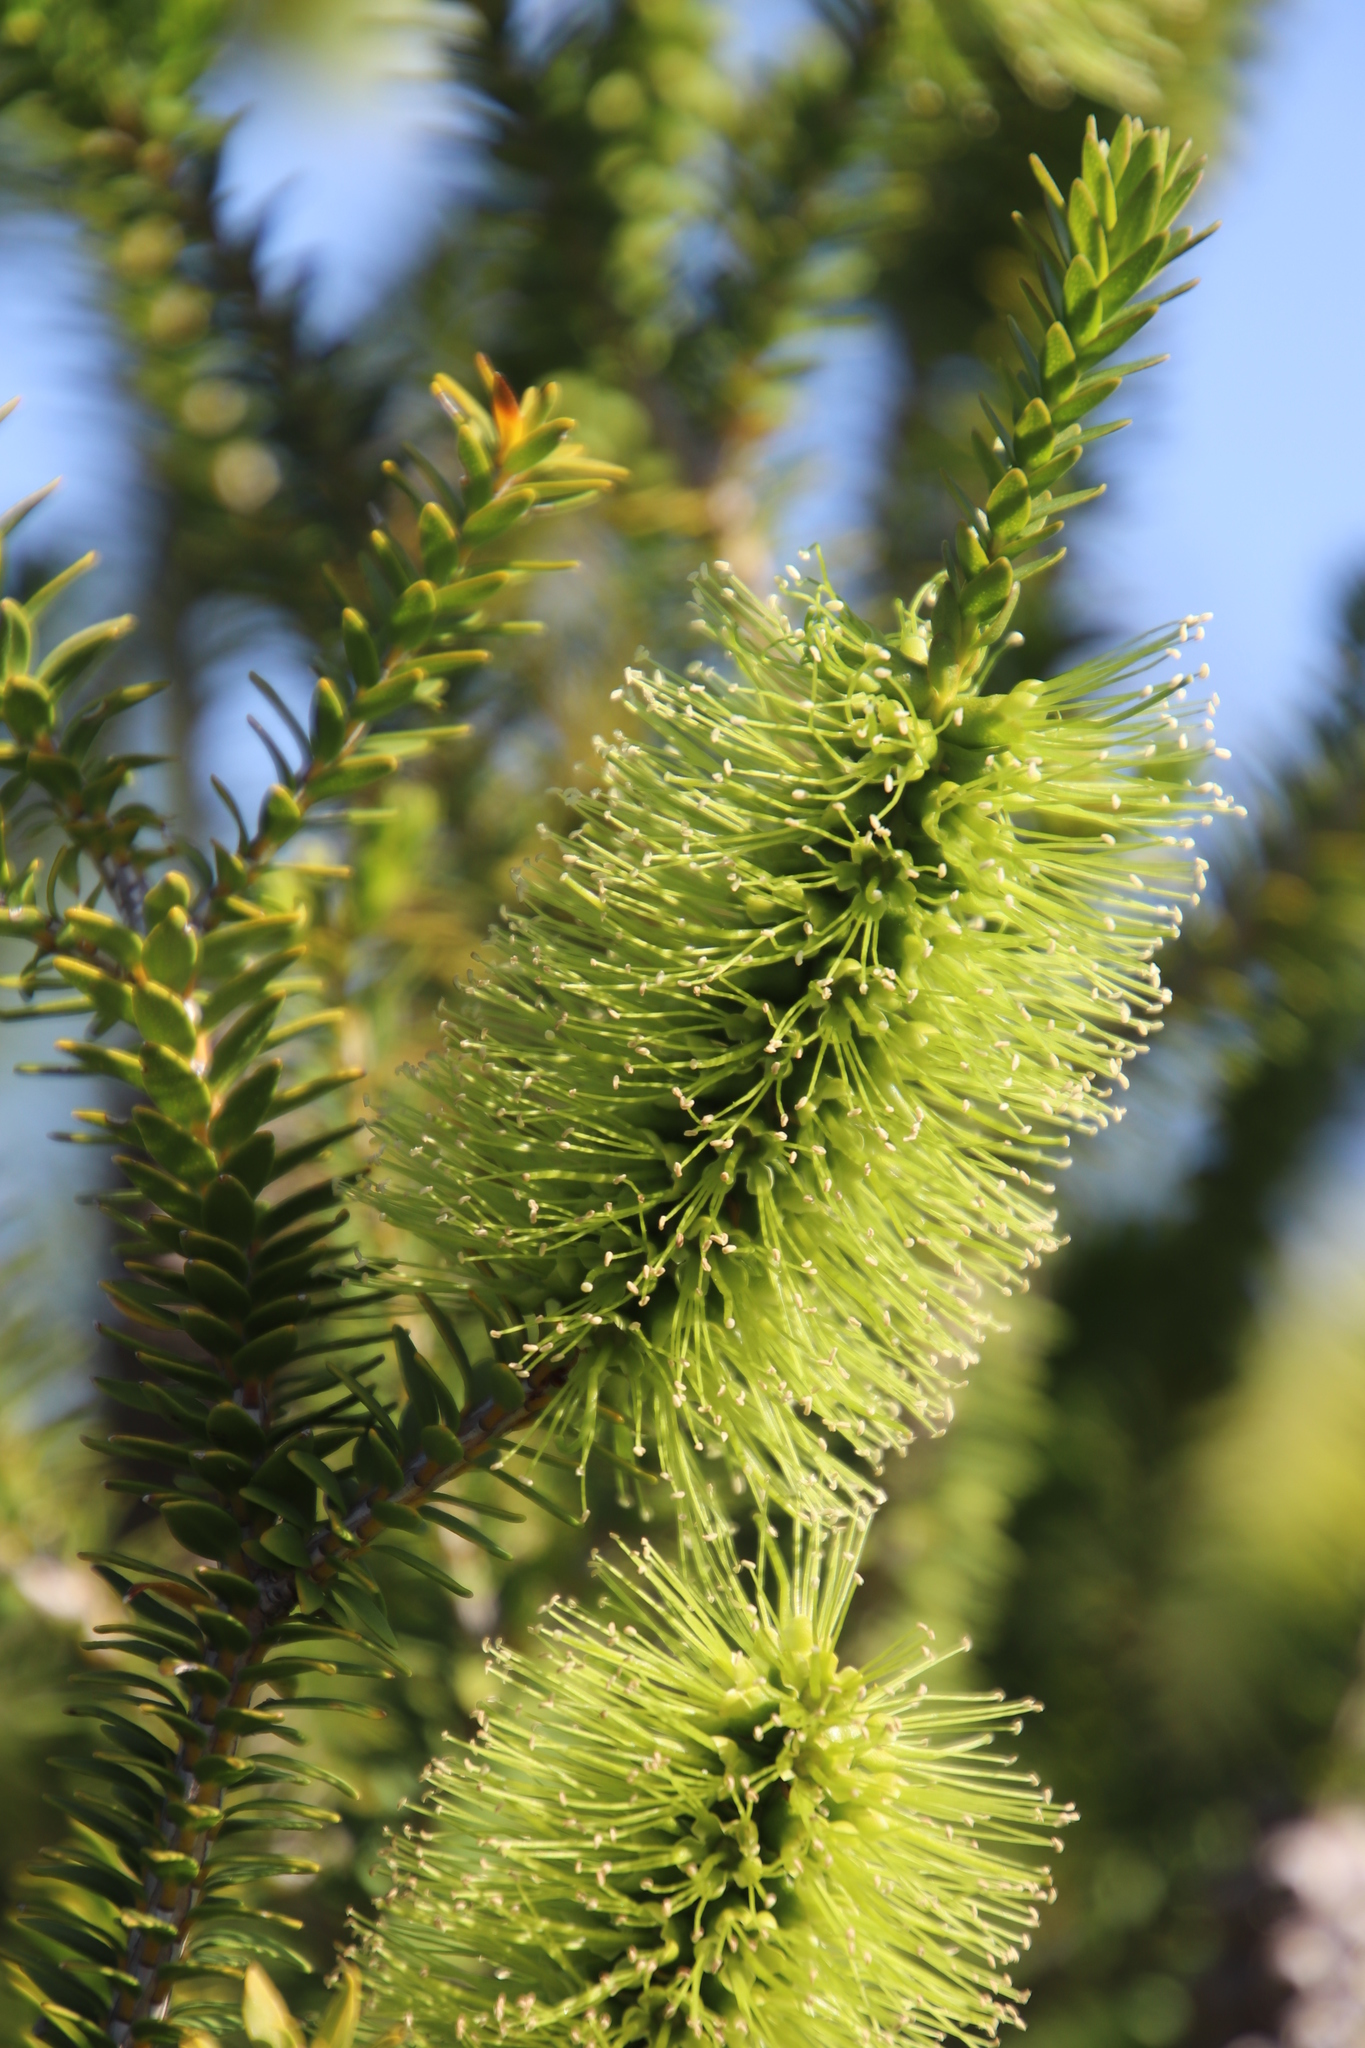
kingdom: Plantae
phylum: Tracheophyta
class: Magnoliopsida
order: Myrtales
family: Myrtaceae
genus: Melaleuca
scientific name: Melaleuca diosmifolia
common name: Green honey myrtle
